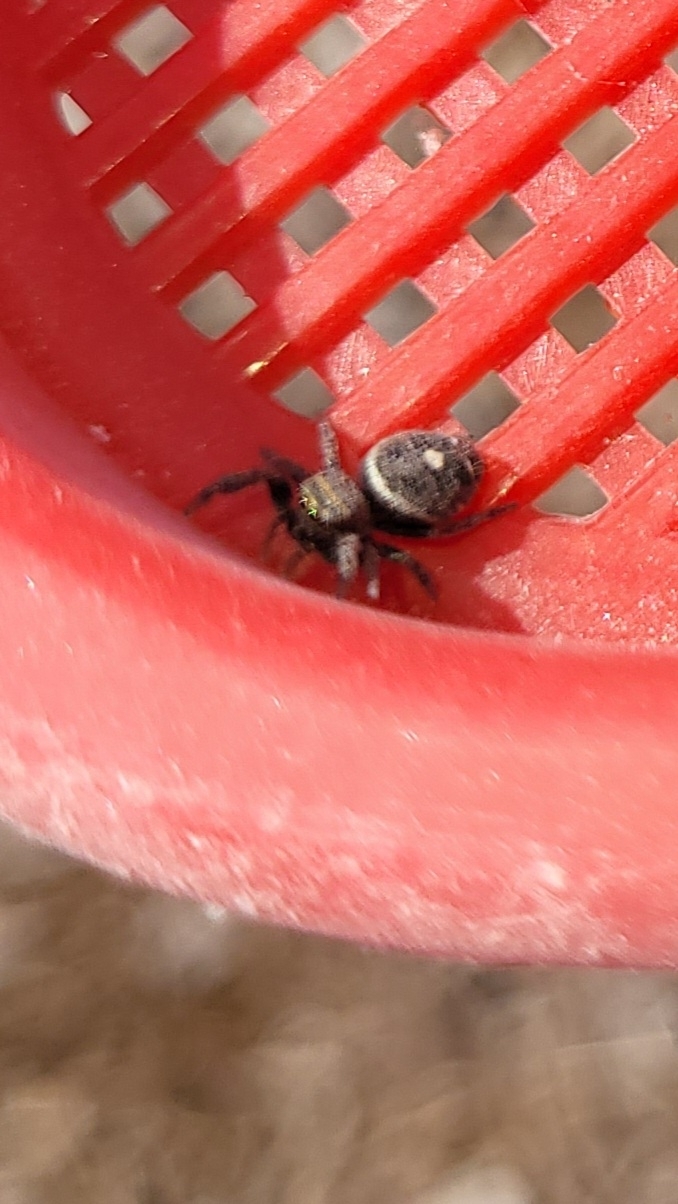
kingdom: Animalia
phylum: Arthropoda
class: Arachnida
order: Araneae
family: Salticidae
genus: Phidippus
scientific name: Phidippus audax
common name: Bold jumper
